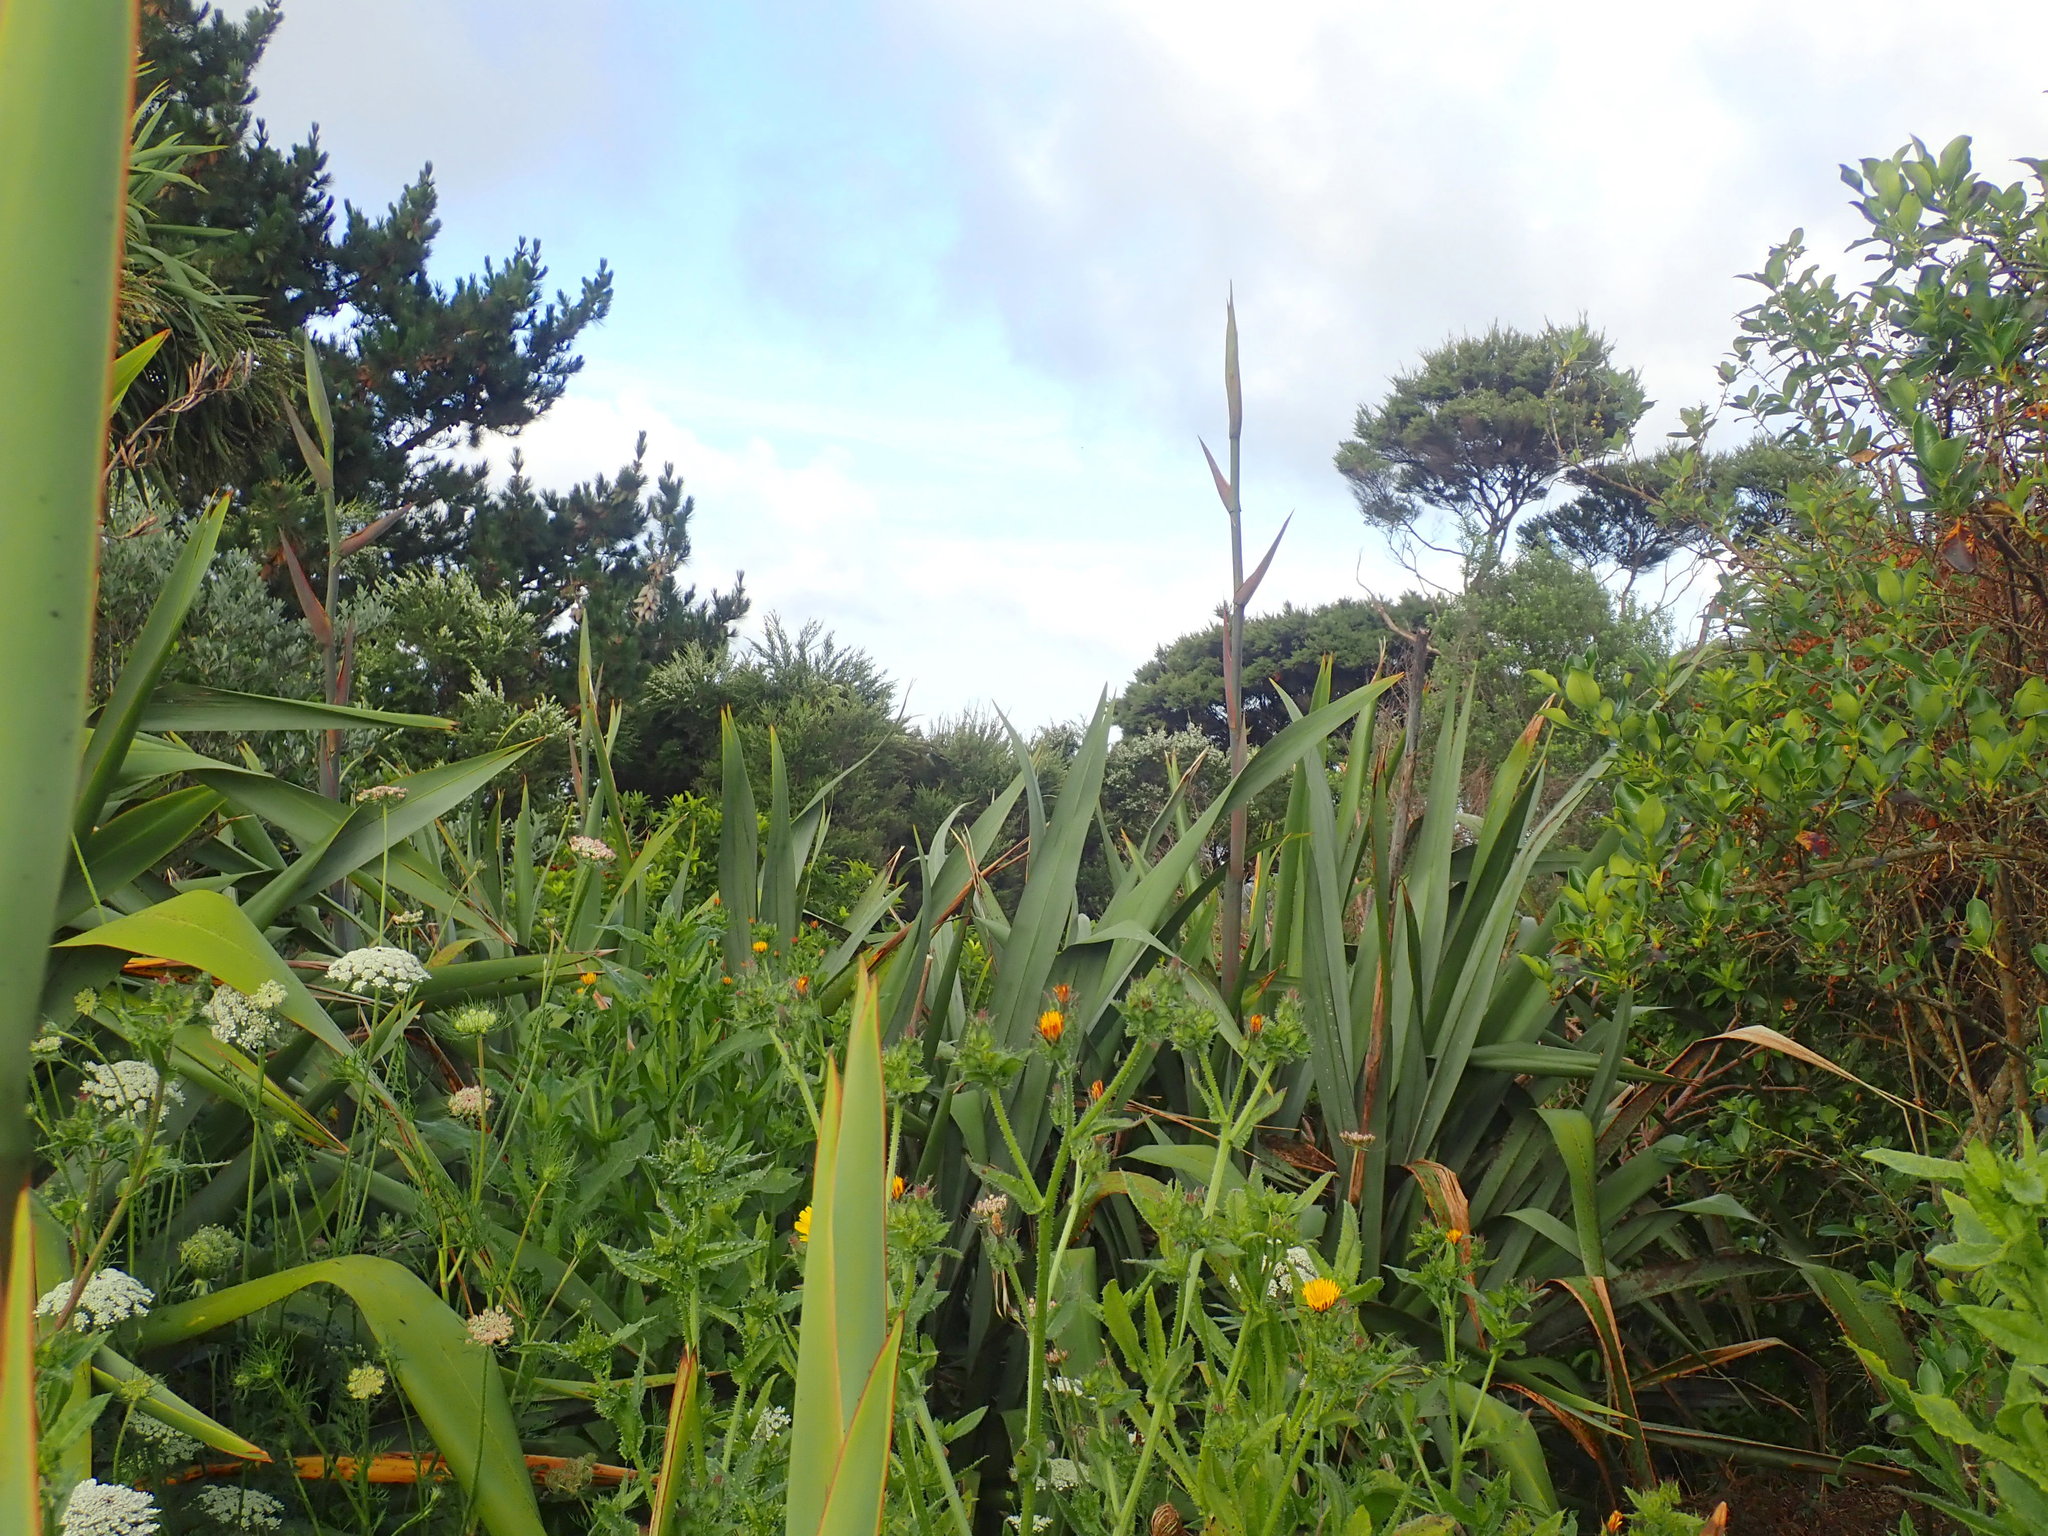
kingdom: Plantae
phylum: Tracheophyta
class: Magnoliopsida
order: Asterales
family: Asteraceae
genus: Helminthotheca
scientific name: Helminthotheca echioides
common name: Ox-tongue
